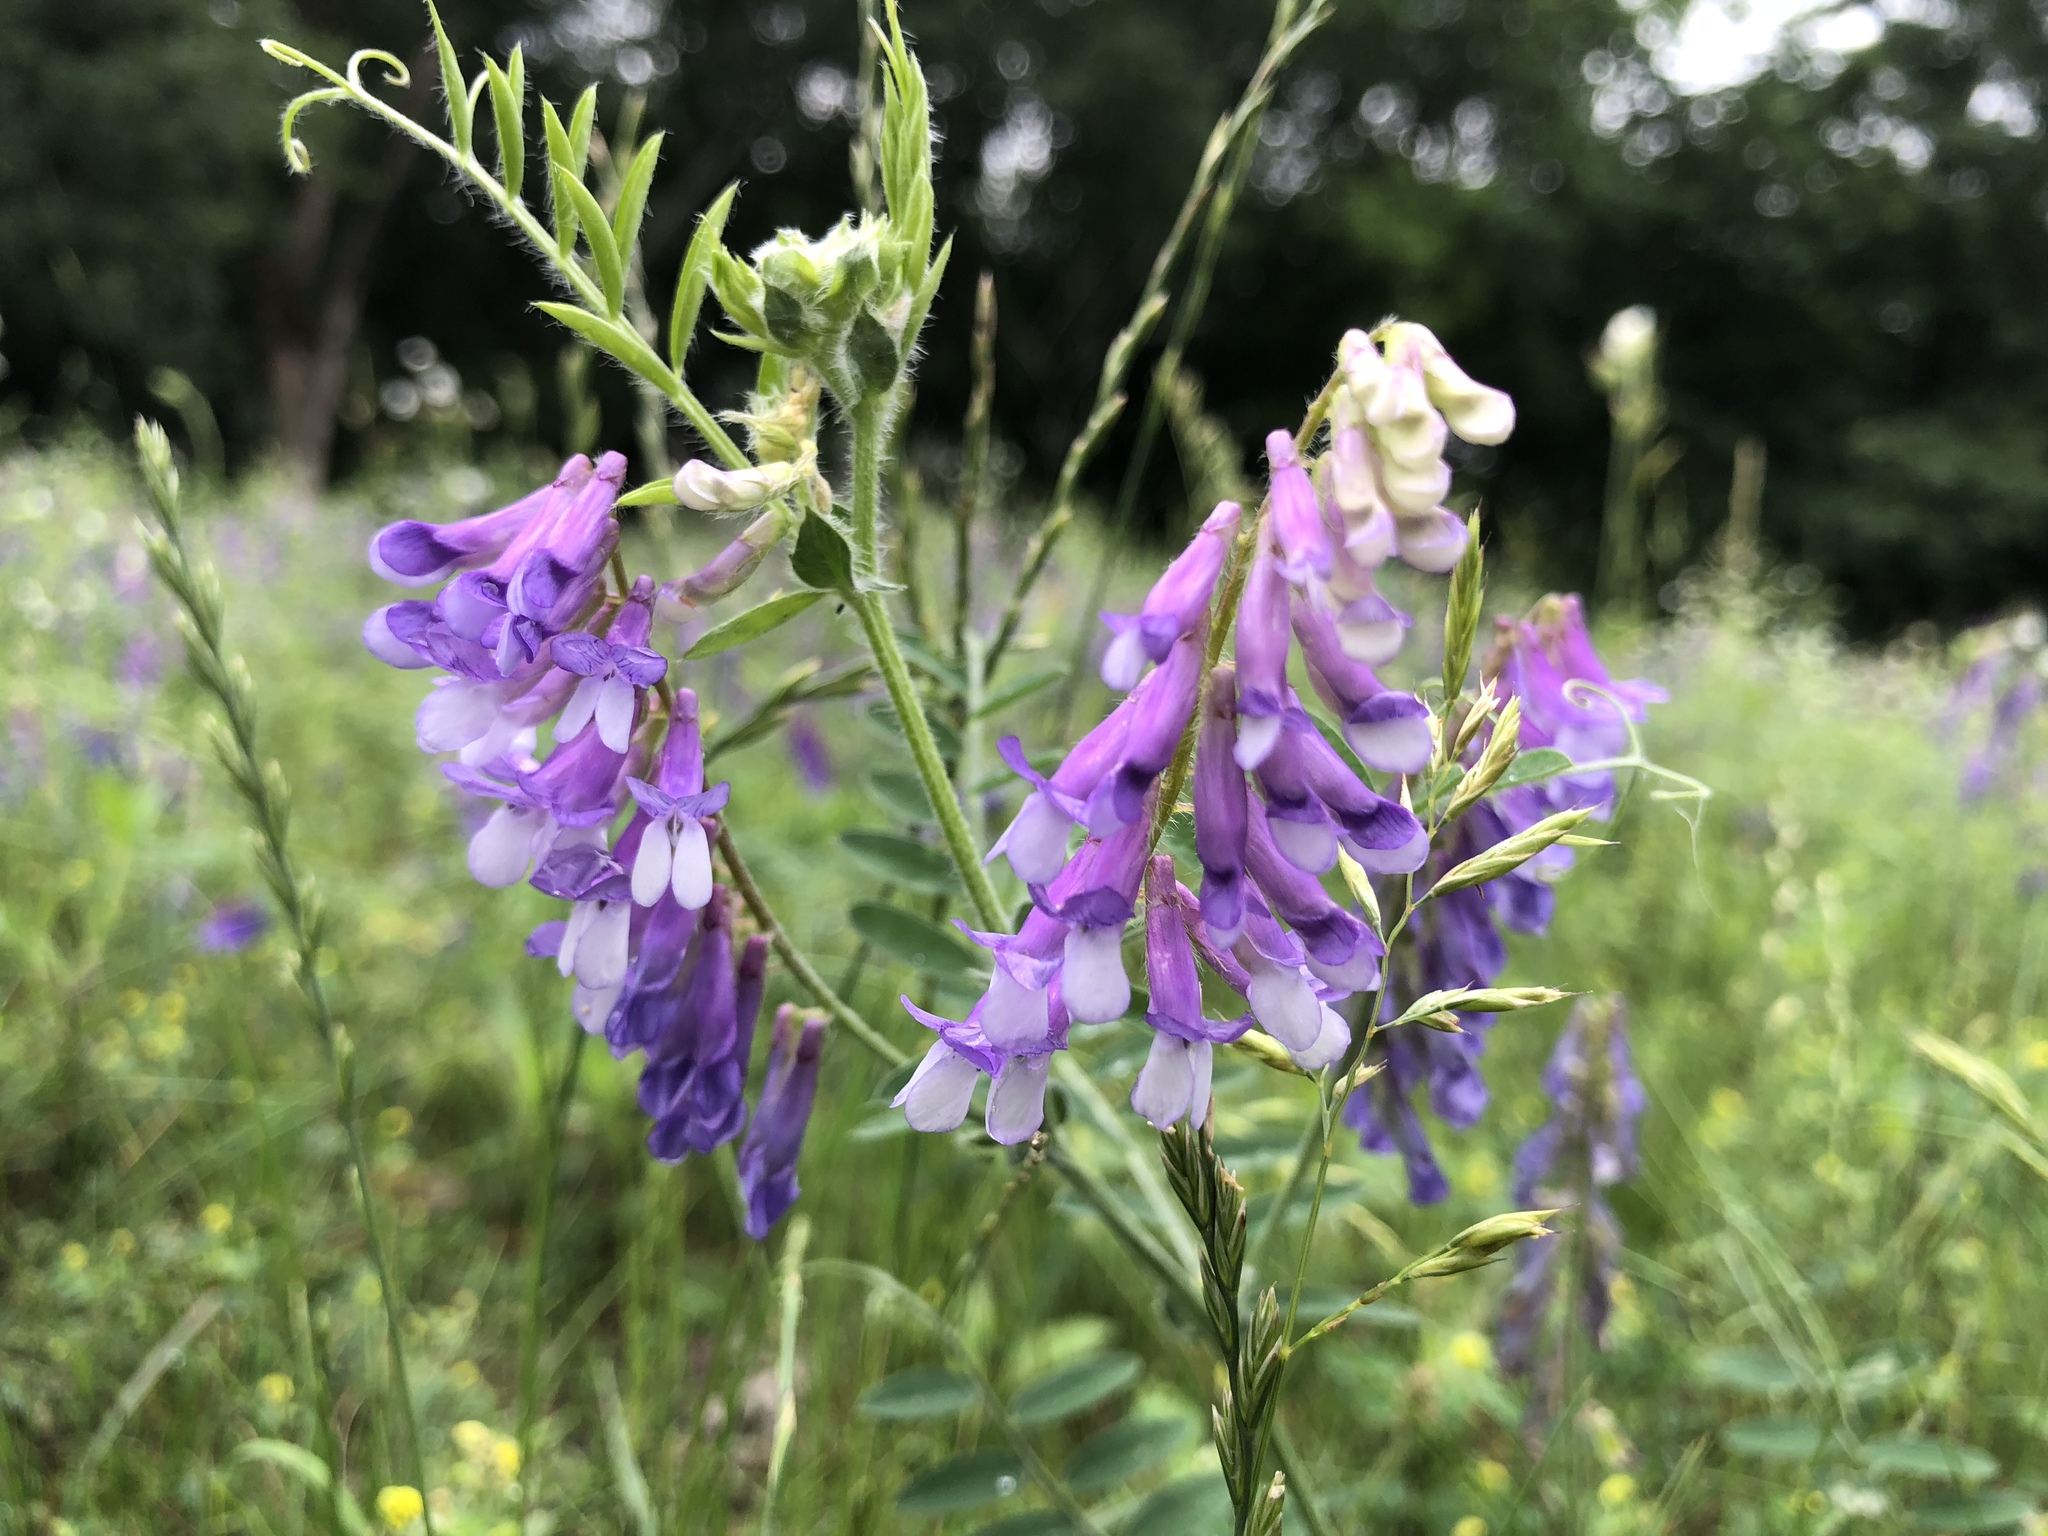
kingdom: Plantae
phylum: Tracheophyta
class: Magnoliopsida
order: Fabales
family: Fabaceae
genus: Vicia
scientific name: Vicia villosa
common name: Fodder vetch
